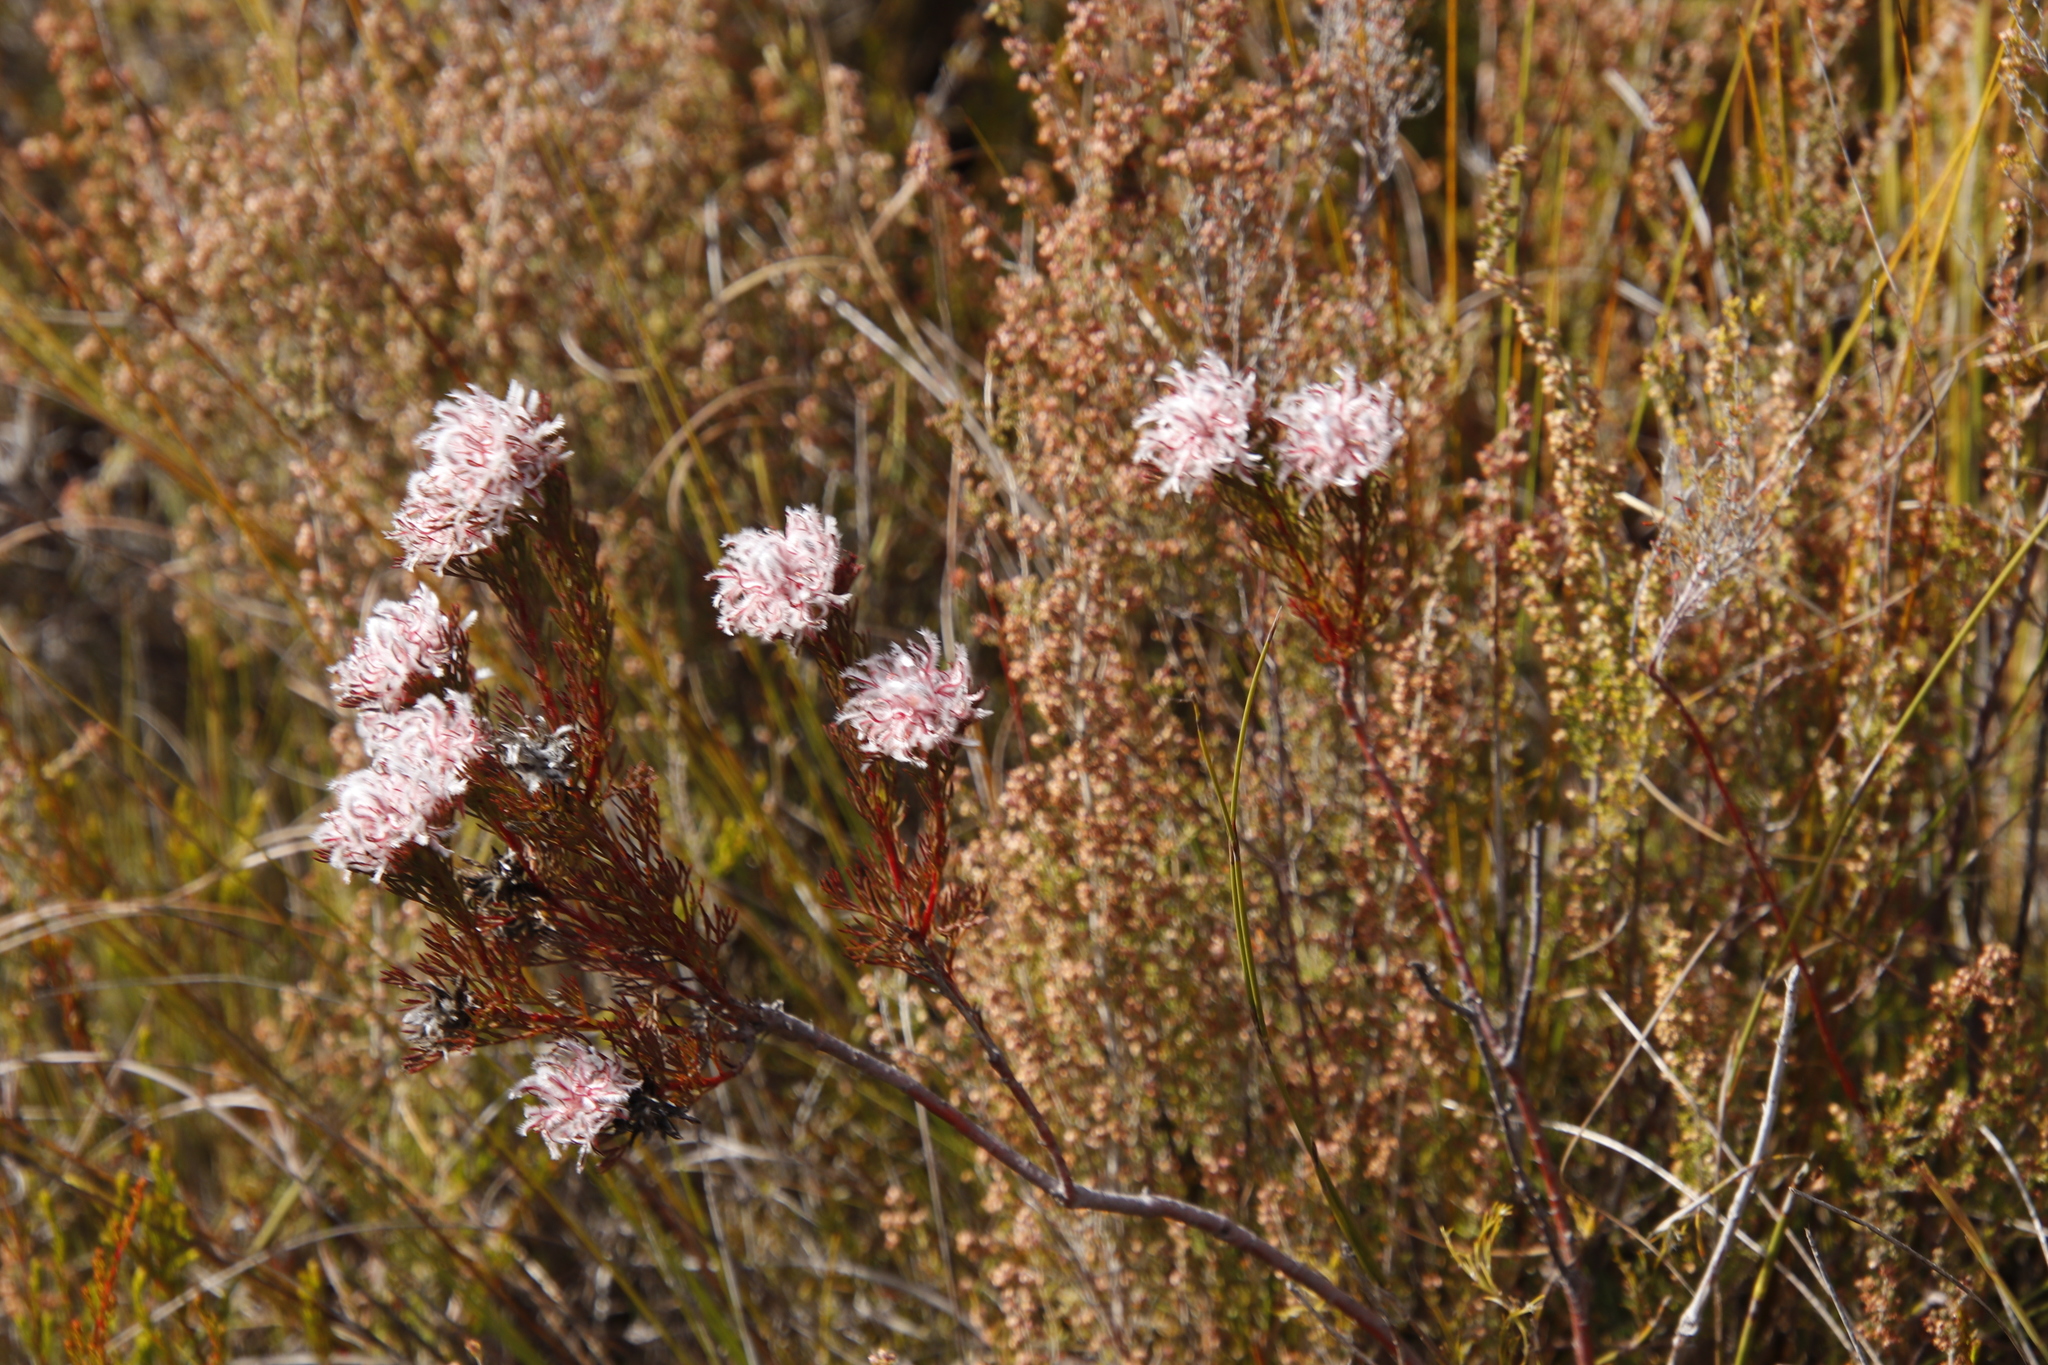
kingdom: Plantae
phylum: Tracheophyta
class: Magnoliopsida
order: Proteales
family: Proteaceae
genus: Serruria
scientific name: Serruria rostellaris
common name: Remote spiderhead
